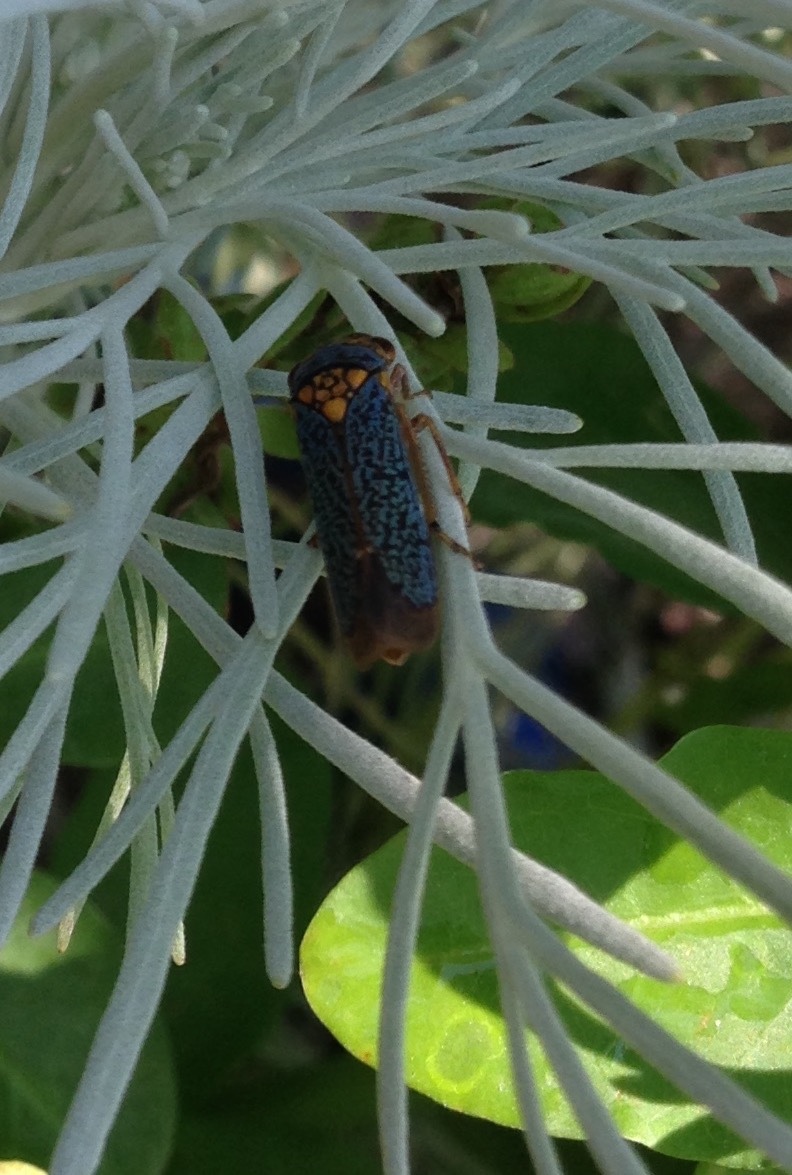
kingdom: Animalia
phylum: Arthropoda
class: Insecta
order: Hemiptera
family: Cicadellidae
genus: Oncometopia
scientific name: Oncometopia orbona
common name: Broad-headed sharpshooter
